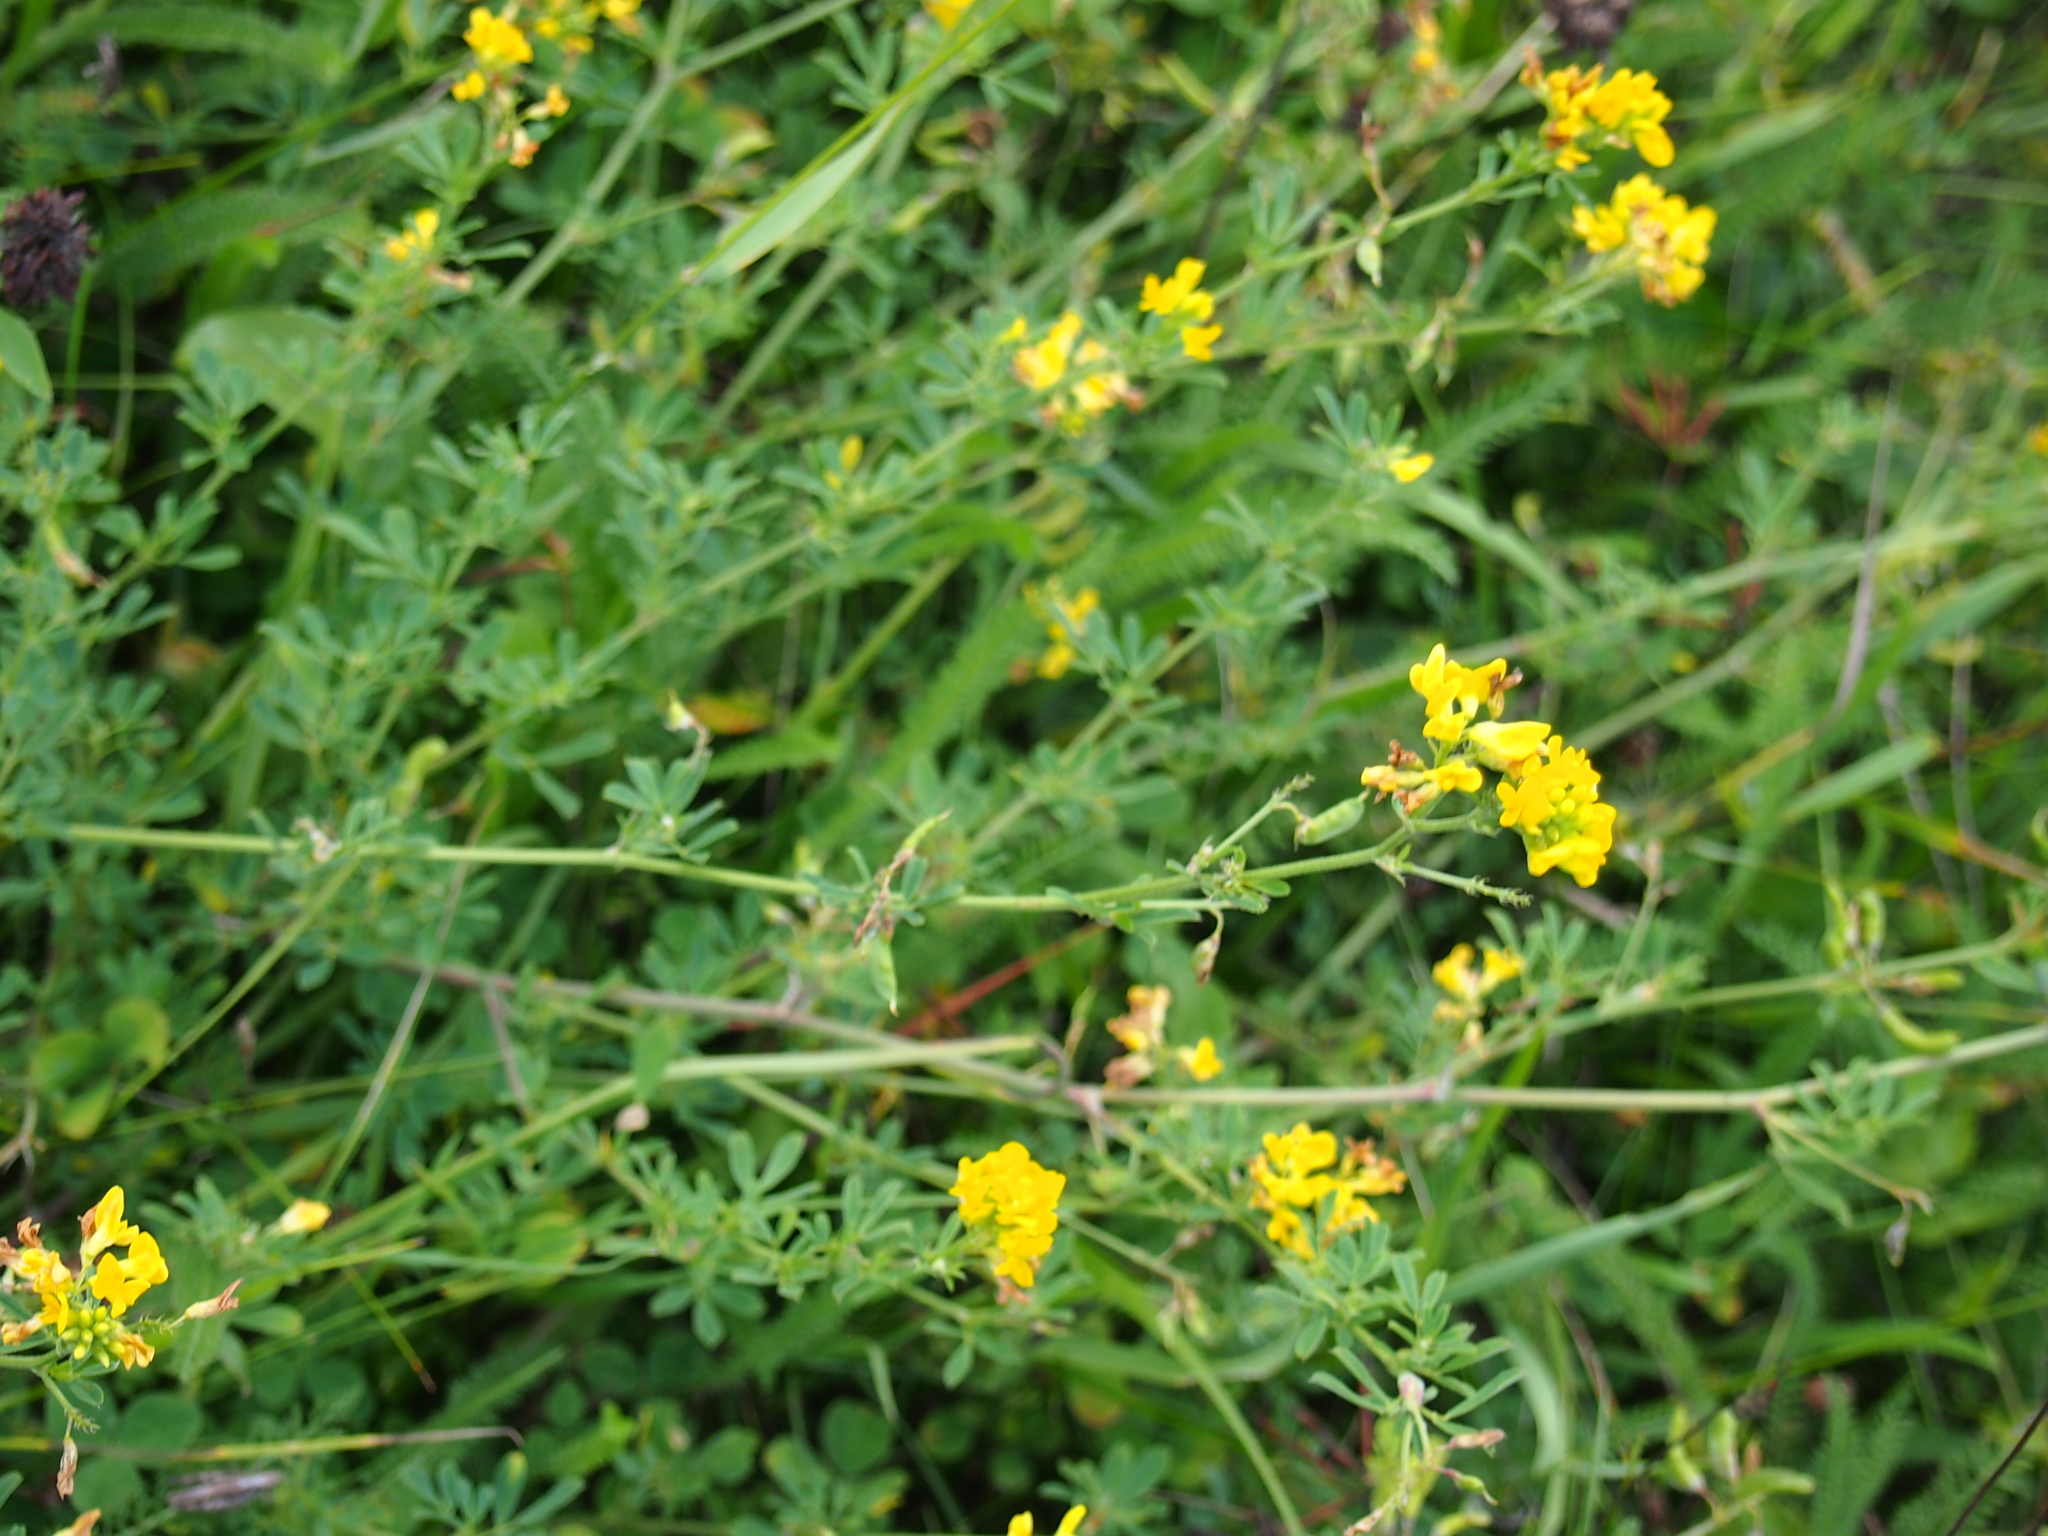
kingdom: Plantae
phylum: Tracheophyta
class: Magnoliopsida
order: Fabales
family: Fabaceae
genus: Medicago
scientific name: Medicago falcata
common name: Sickle medick
